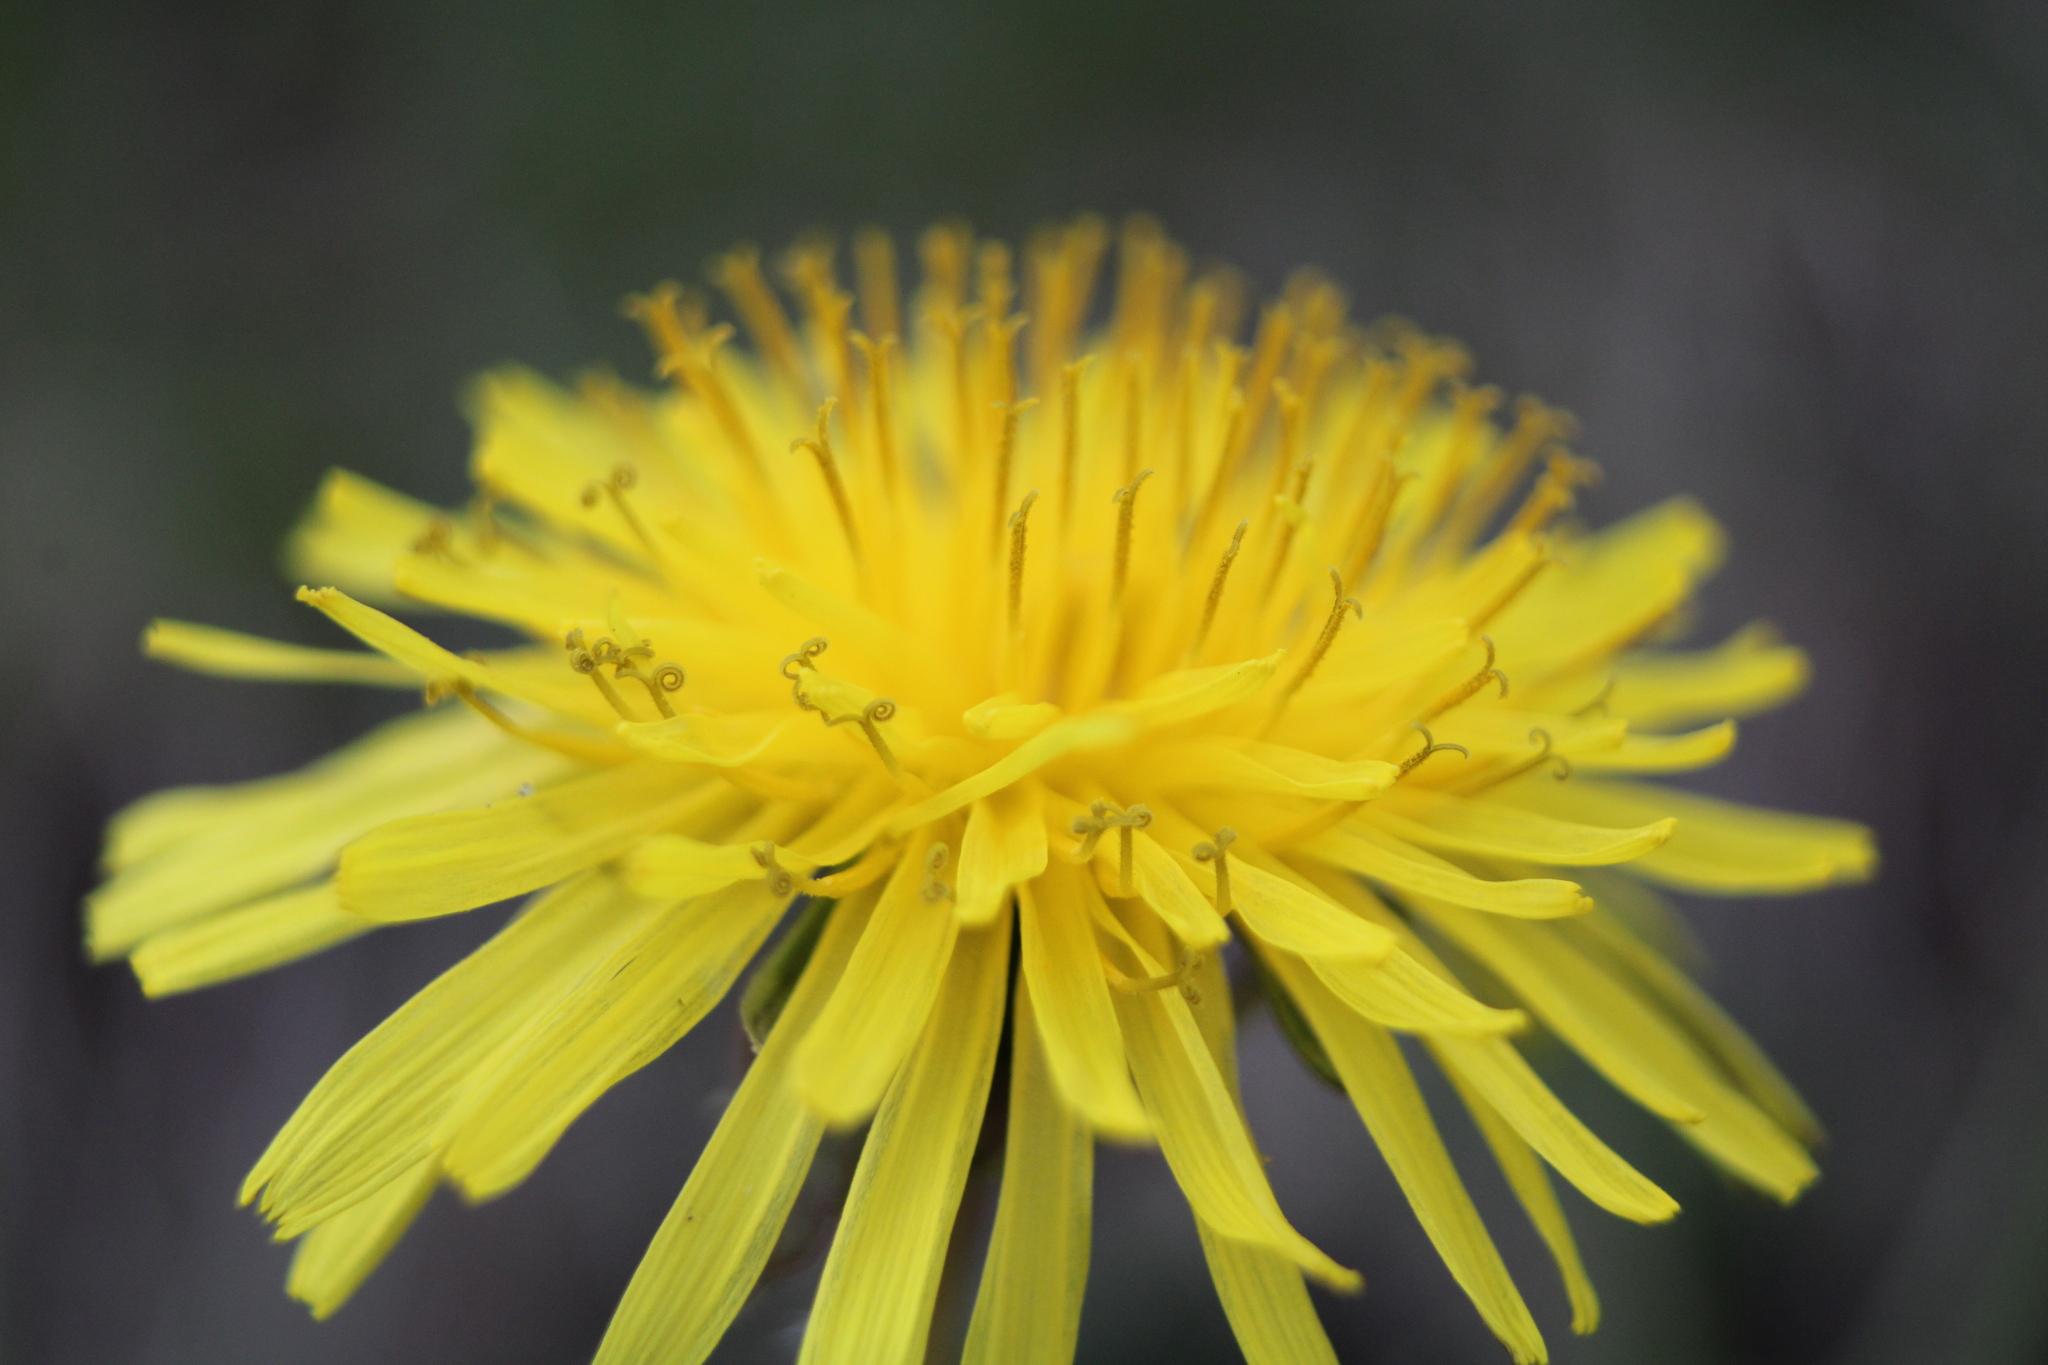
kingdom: Plantae
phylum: Tracheophyta
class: Magnoliopsida
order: Asterales
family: Asteraceae
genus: Taraxacum
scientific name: Taraxacum officinale
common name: Common dandelion
